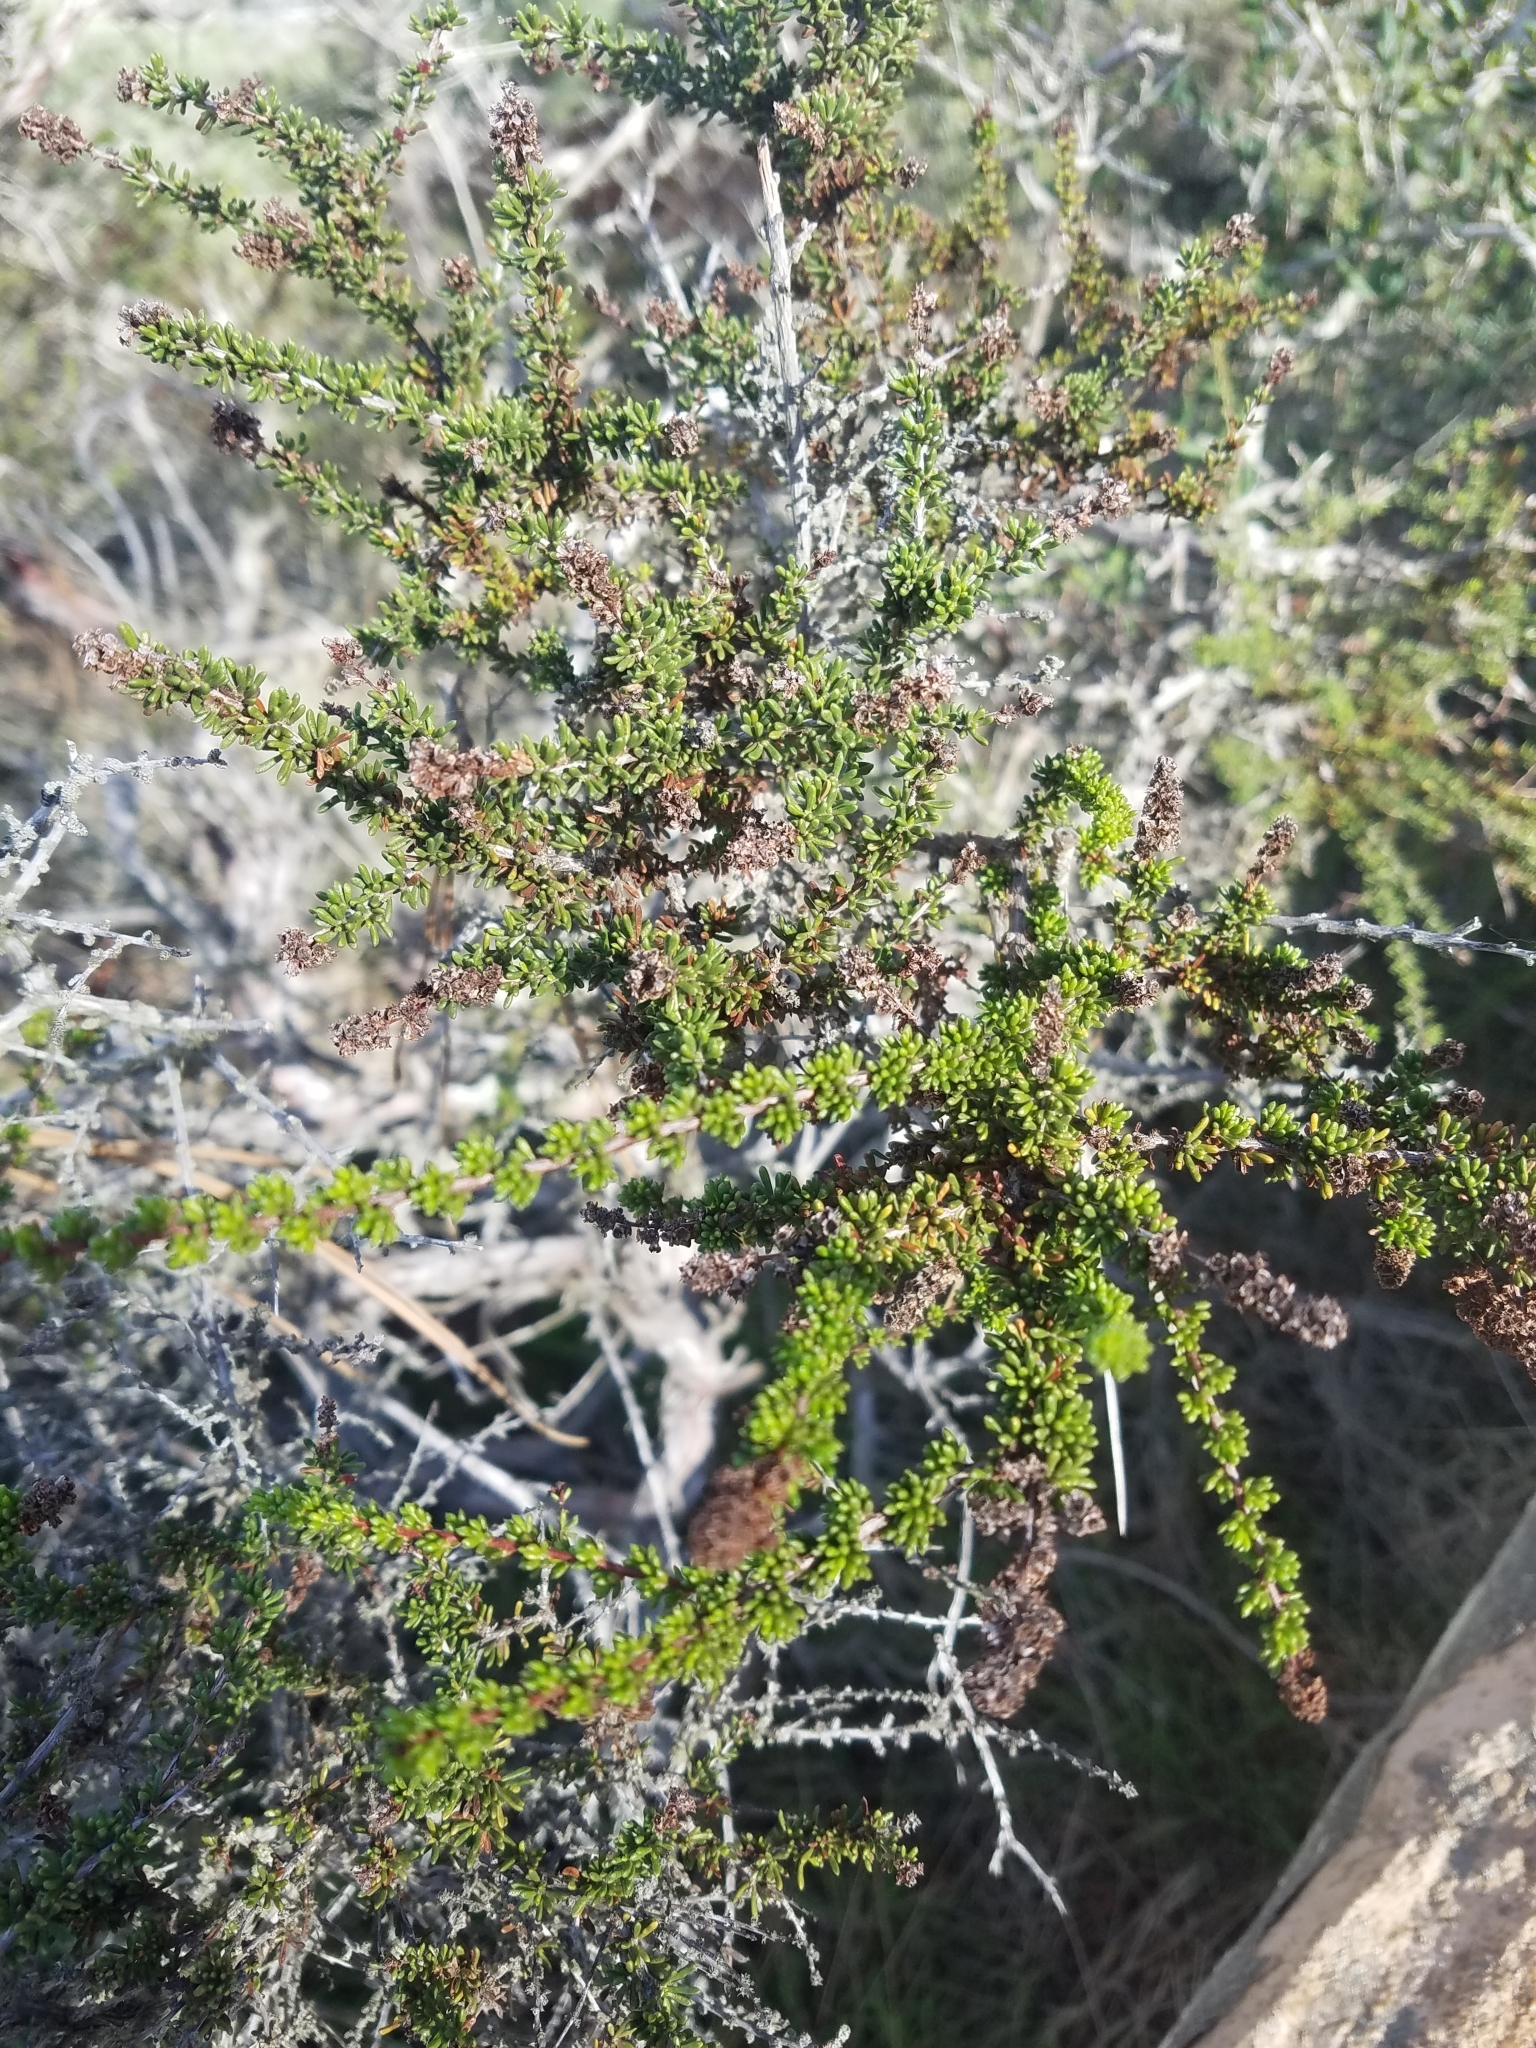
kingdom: Plantae
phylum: Tracheophyta
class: Magnoliopsida
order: Rosales
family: Rosaceae
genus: Adenostoma
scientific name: Adenostoma fasciculatum
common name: Chamise
